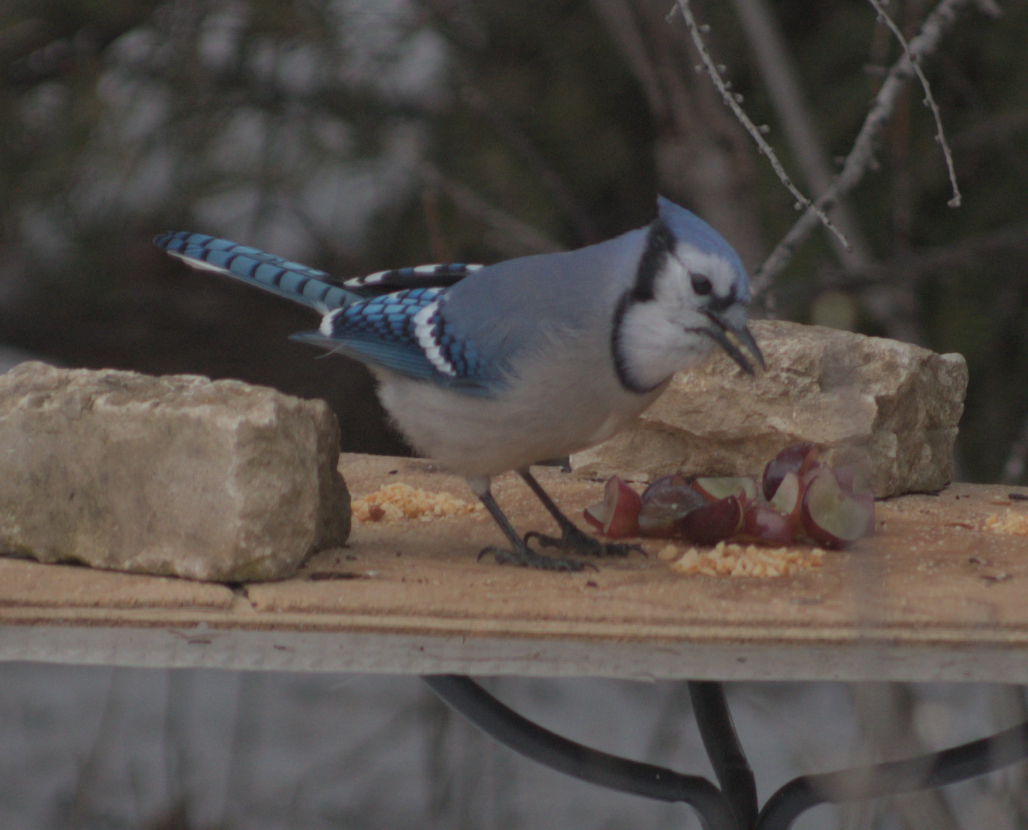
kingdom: Animalia
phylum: Chordata
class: Aves
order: Passeriformes
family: Corvidae
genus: Cyanocitta
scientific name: Cyanocitta cristata
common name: Blue jay
